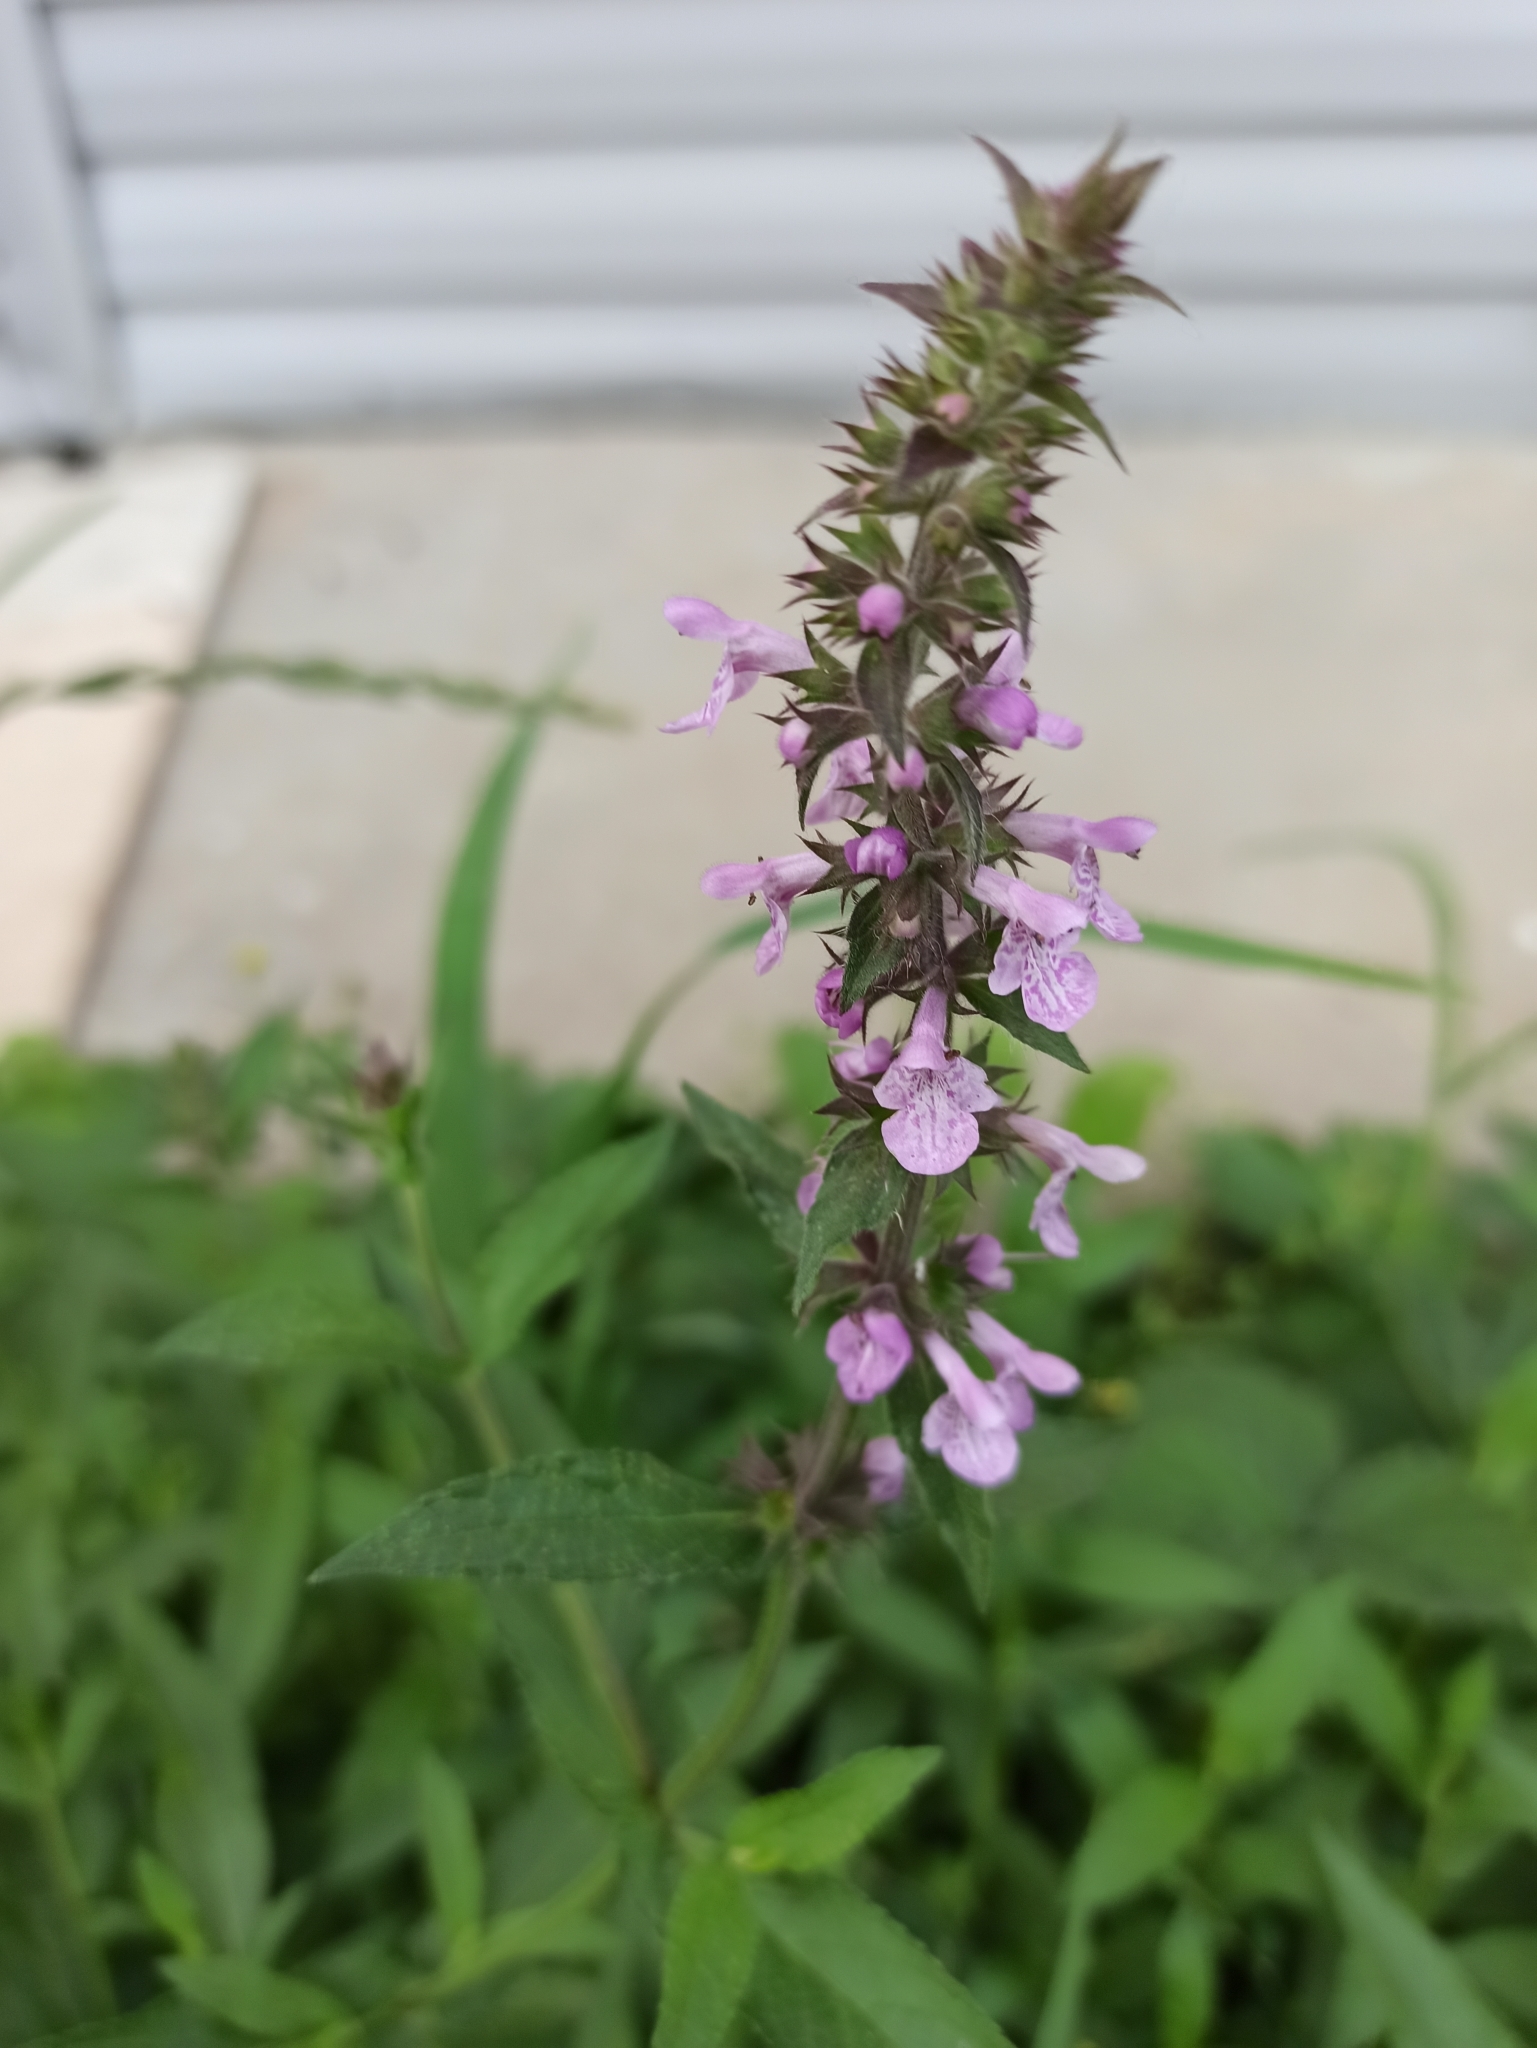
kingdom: Plantae
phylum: Tracheophyta
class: Magnoliopsida
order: Lamiales
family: Lamiaceae
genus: Stachys
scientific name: Stachys palustris
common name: Marsh woundwort
